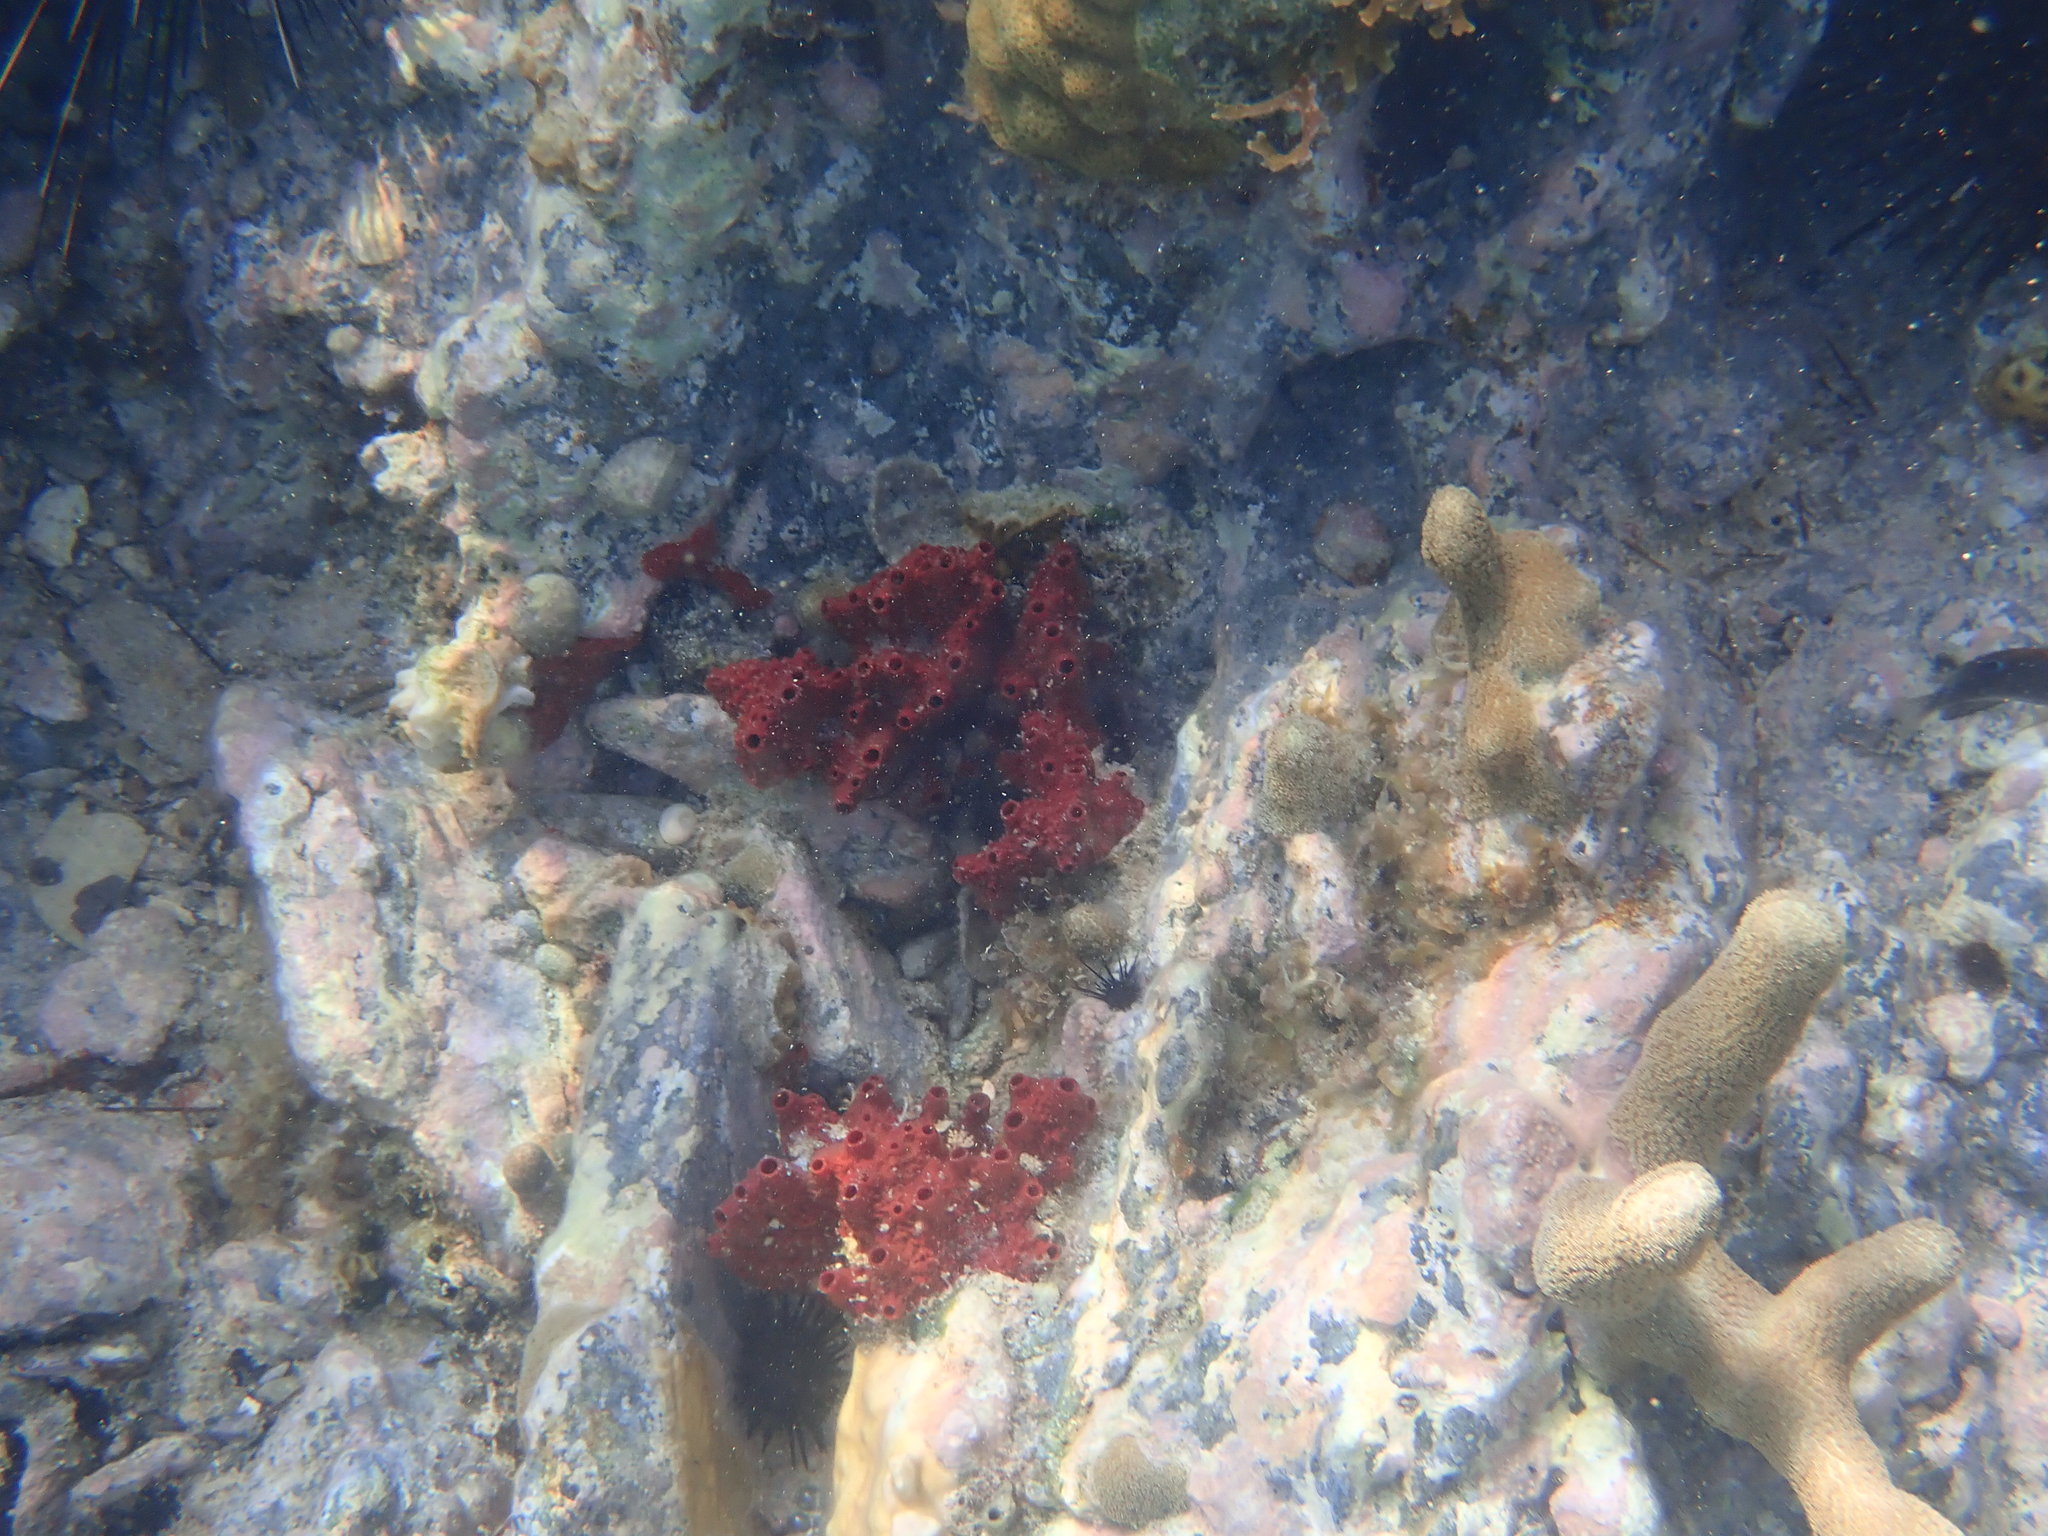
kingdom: Animalia
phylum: Porifera
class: Demospongiae
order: Haplosclerida
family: Niphatidae
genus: Amphimedon
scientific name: Amphimedon compressa
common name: Red sponge
